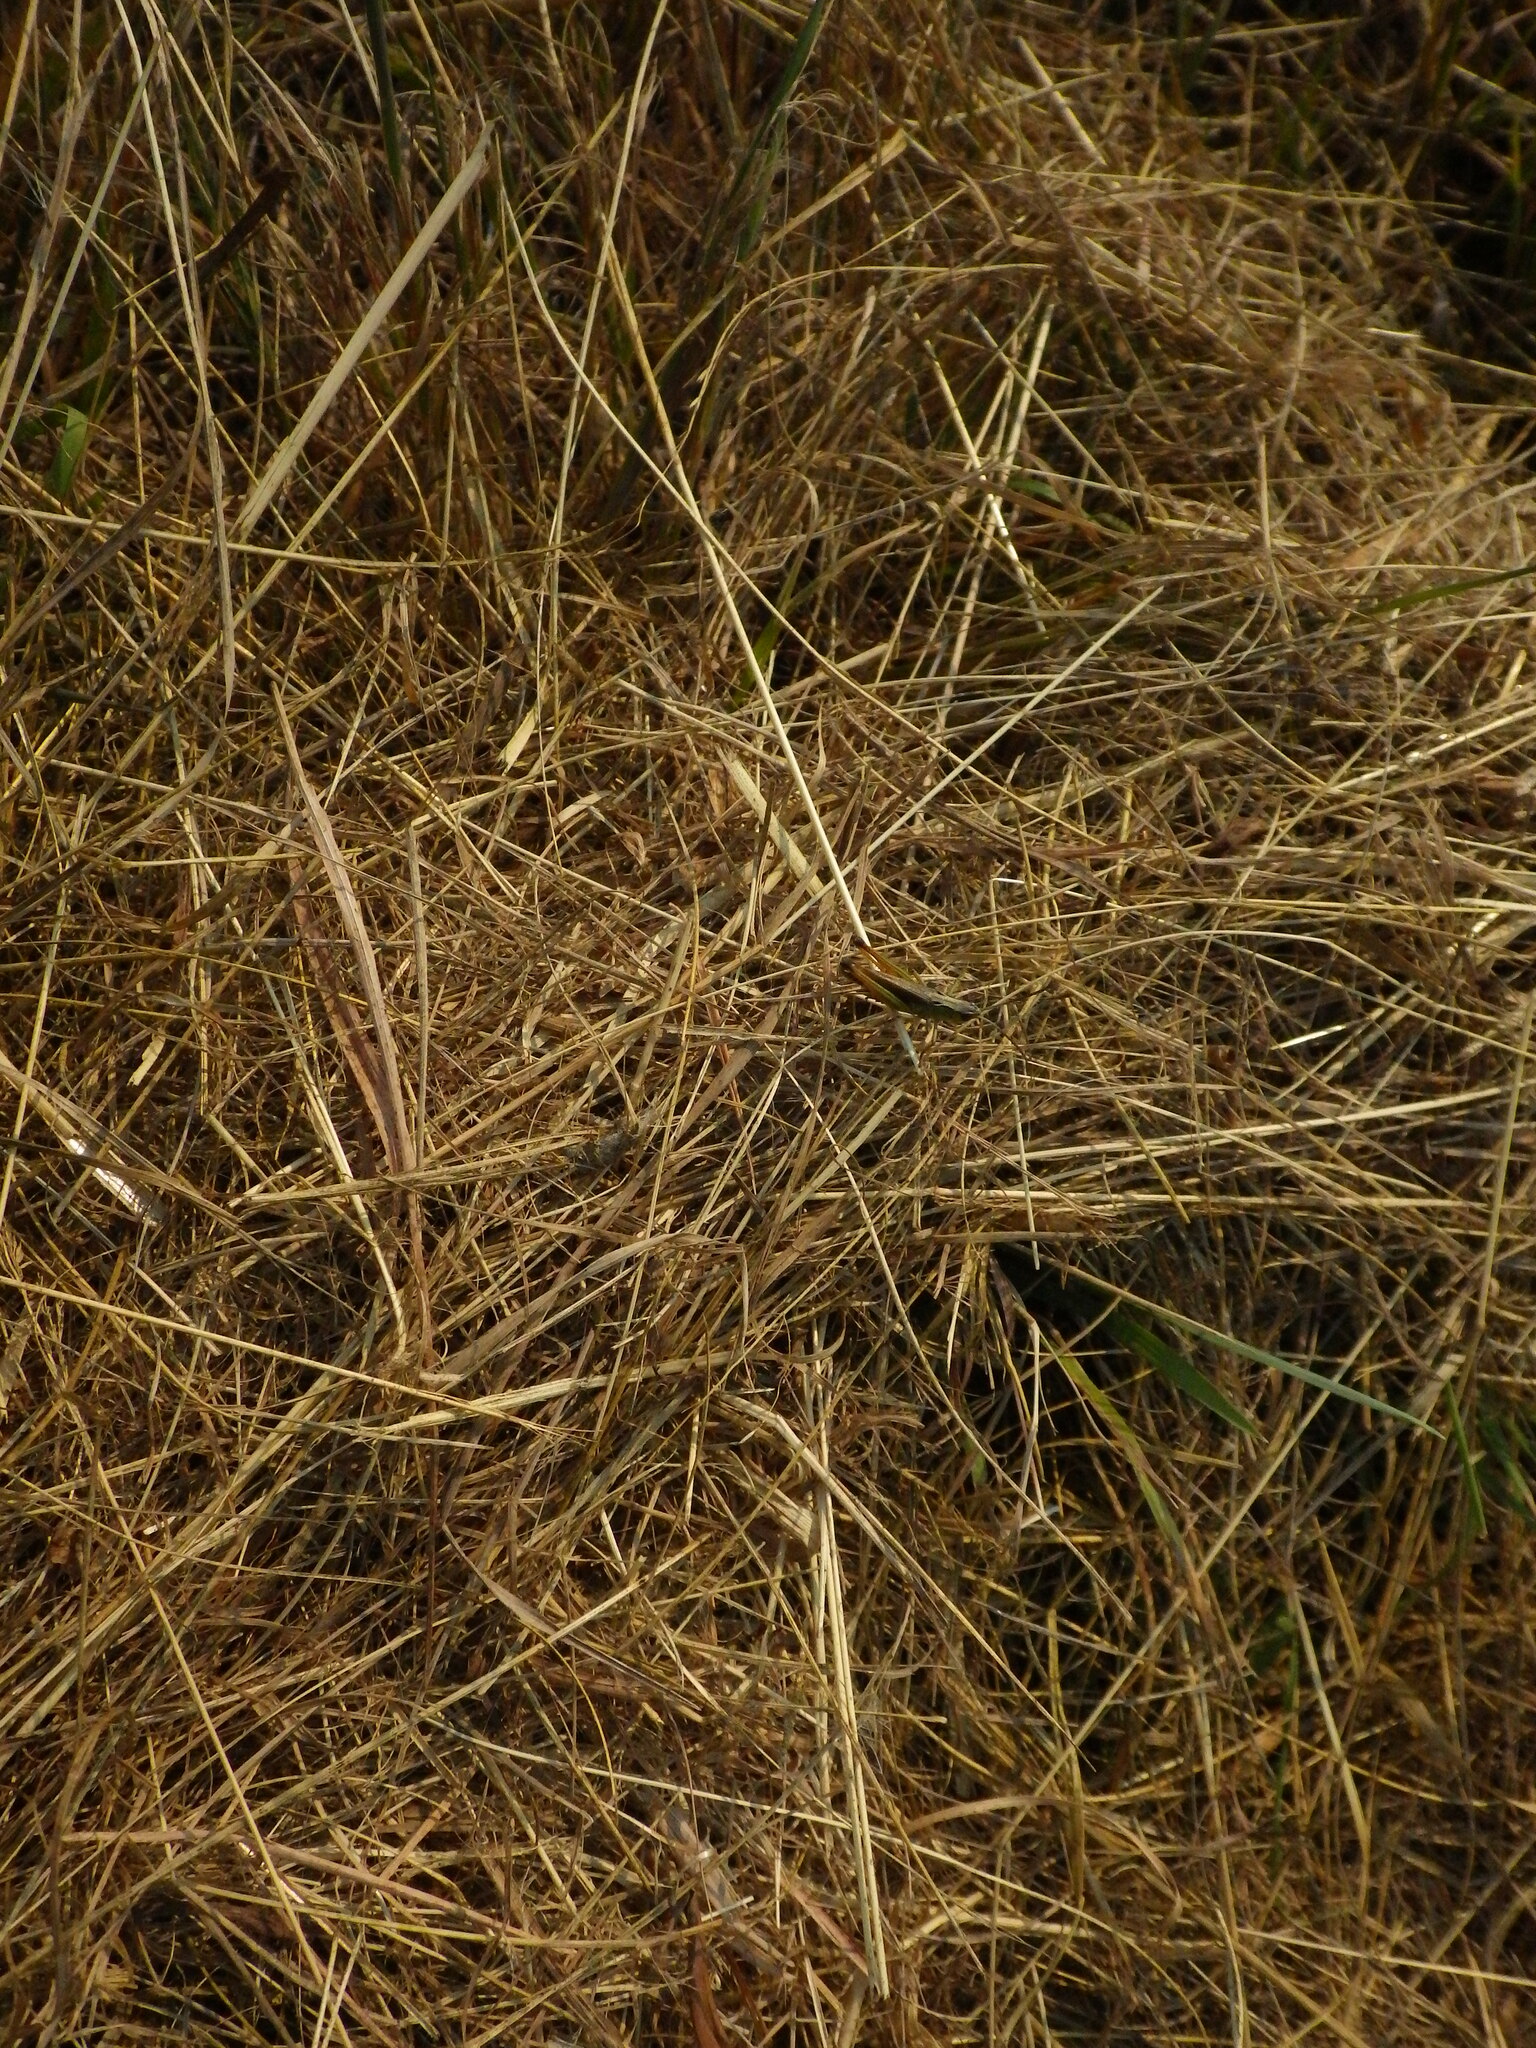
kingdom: Animalia
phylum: Arthropoda
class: Insecta
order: Orthoptera
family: Acrididae
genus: Pseudochorthippus
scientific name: Pseudochorthippus curtipennis
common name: Marsh meadow grasshopper
